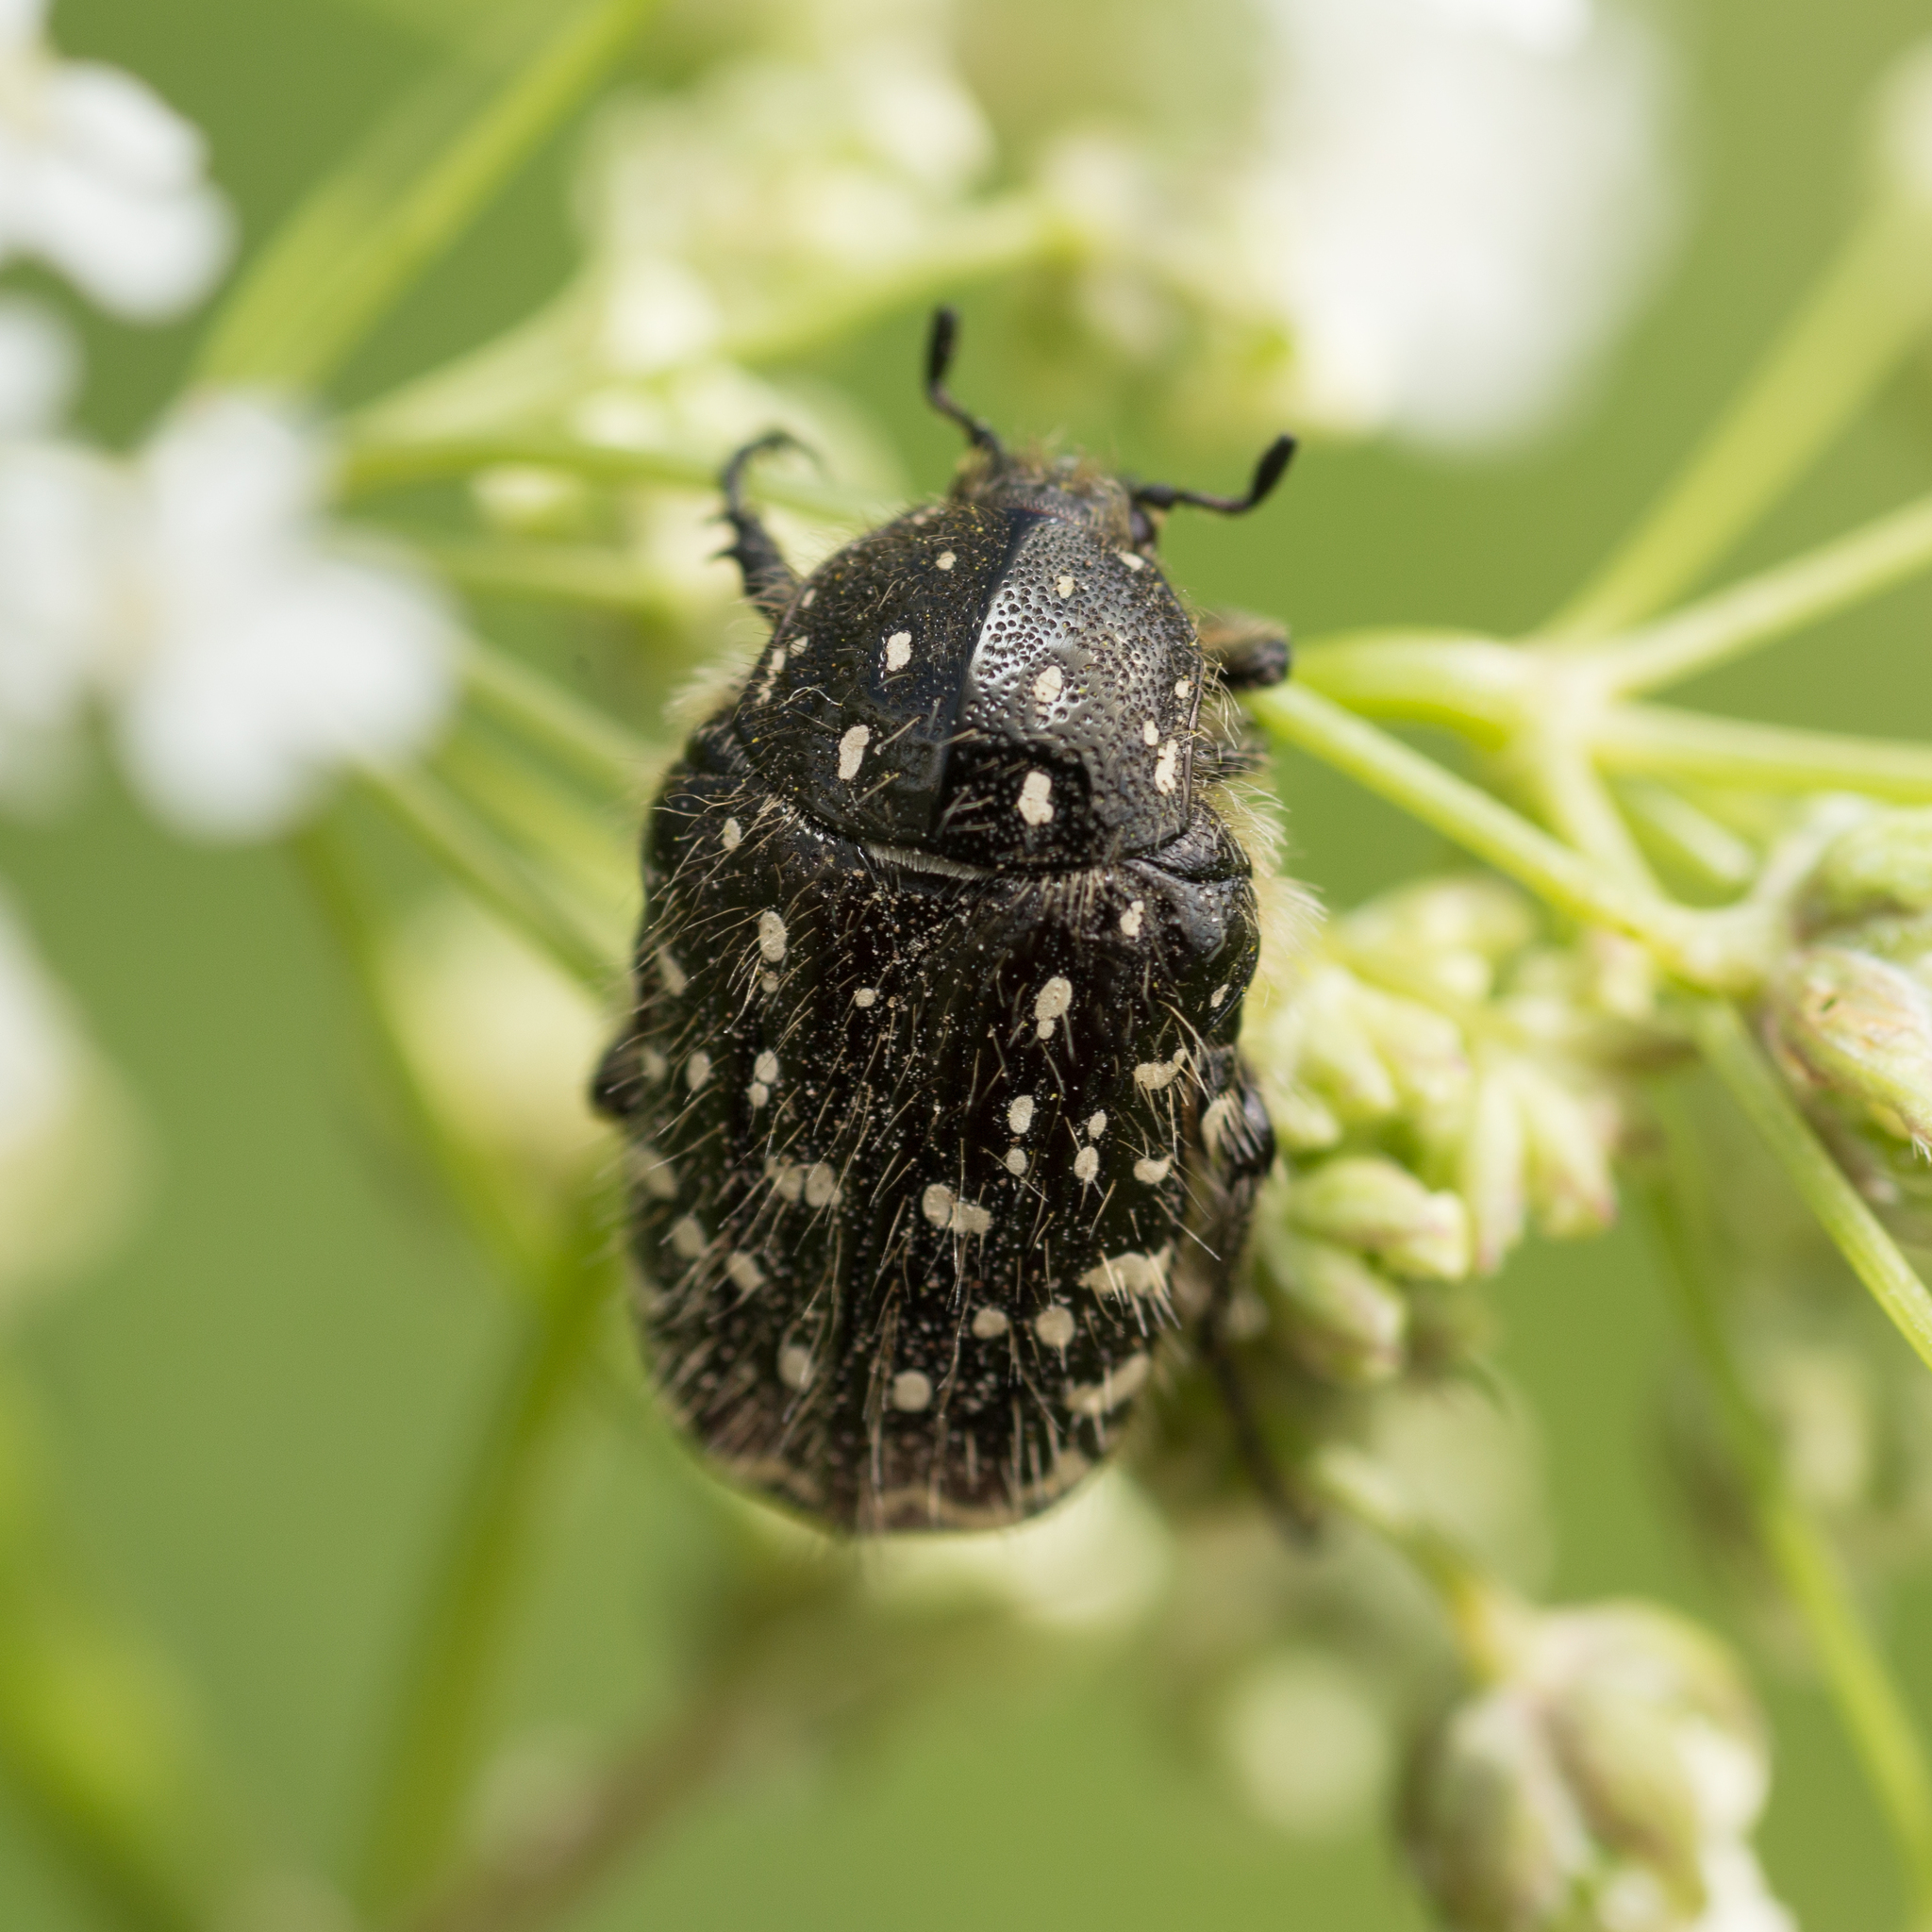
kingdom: Animalia
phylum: Arthropoda
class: Insecta
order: Coleoptera
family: Scarabaeidae
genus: Oxythyrea
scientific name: Oxythyrea funesta
